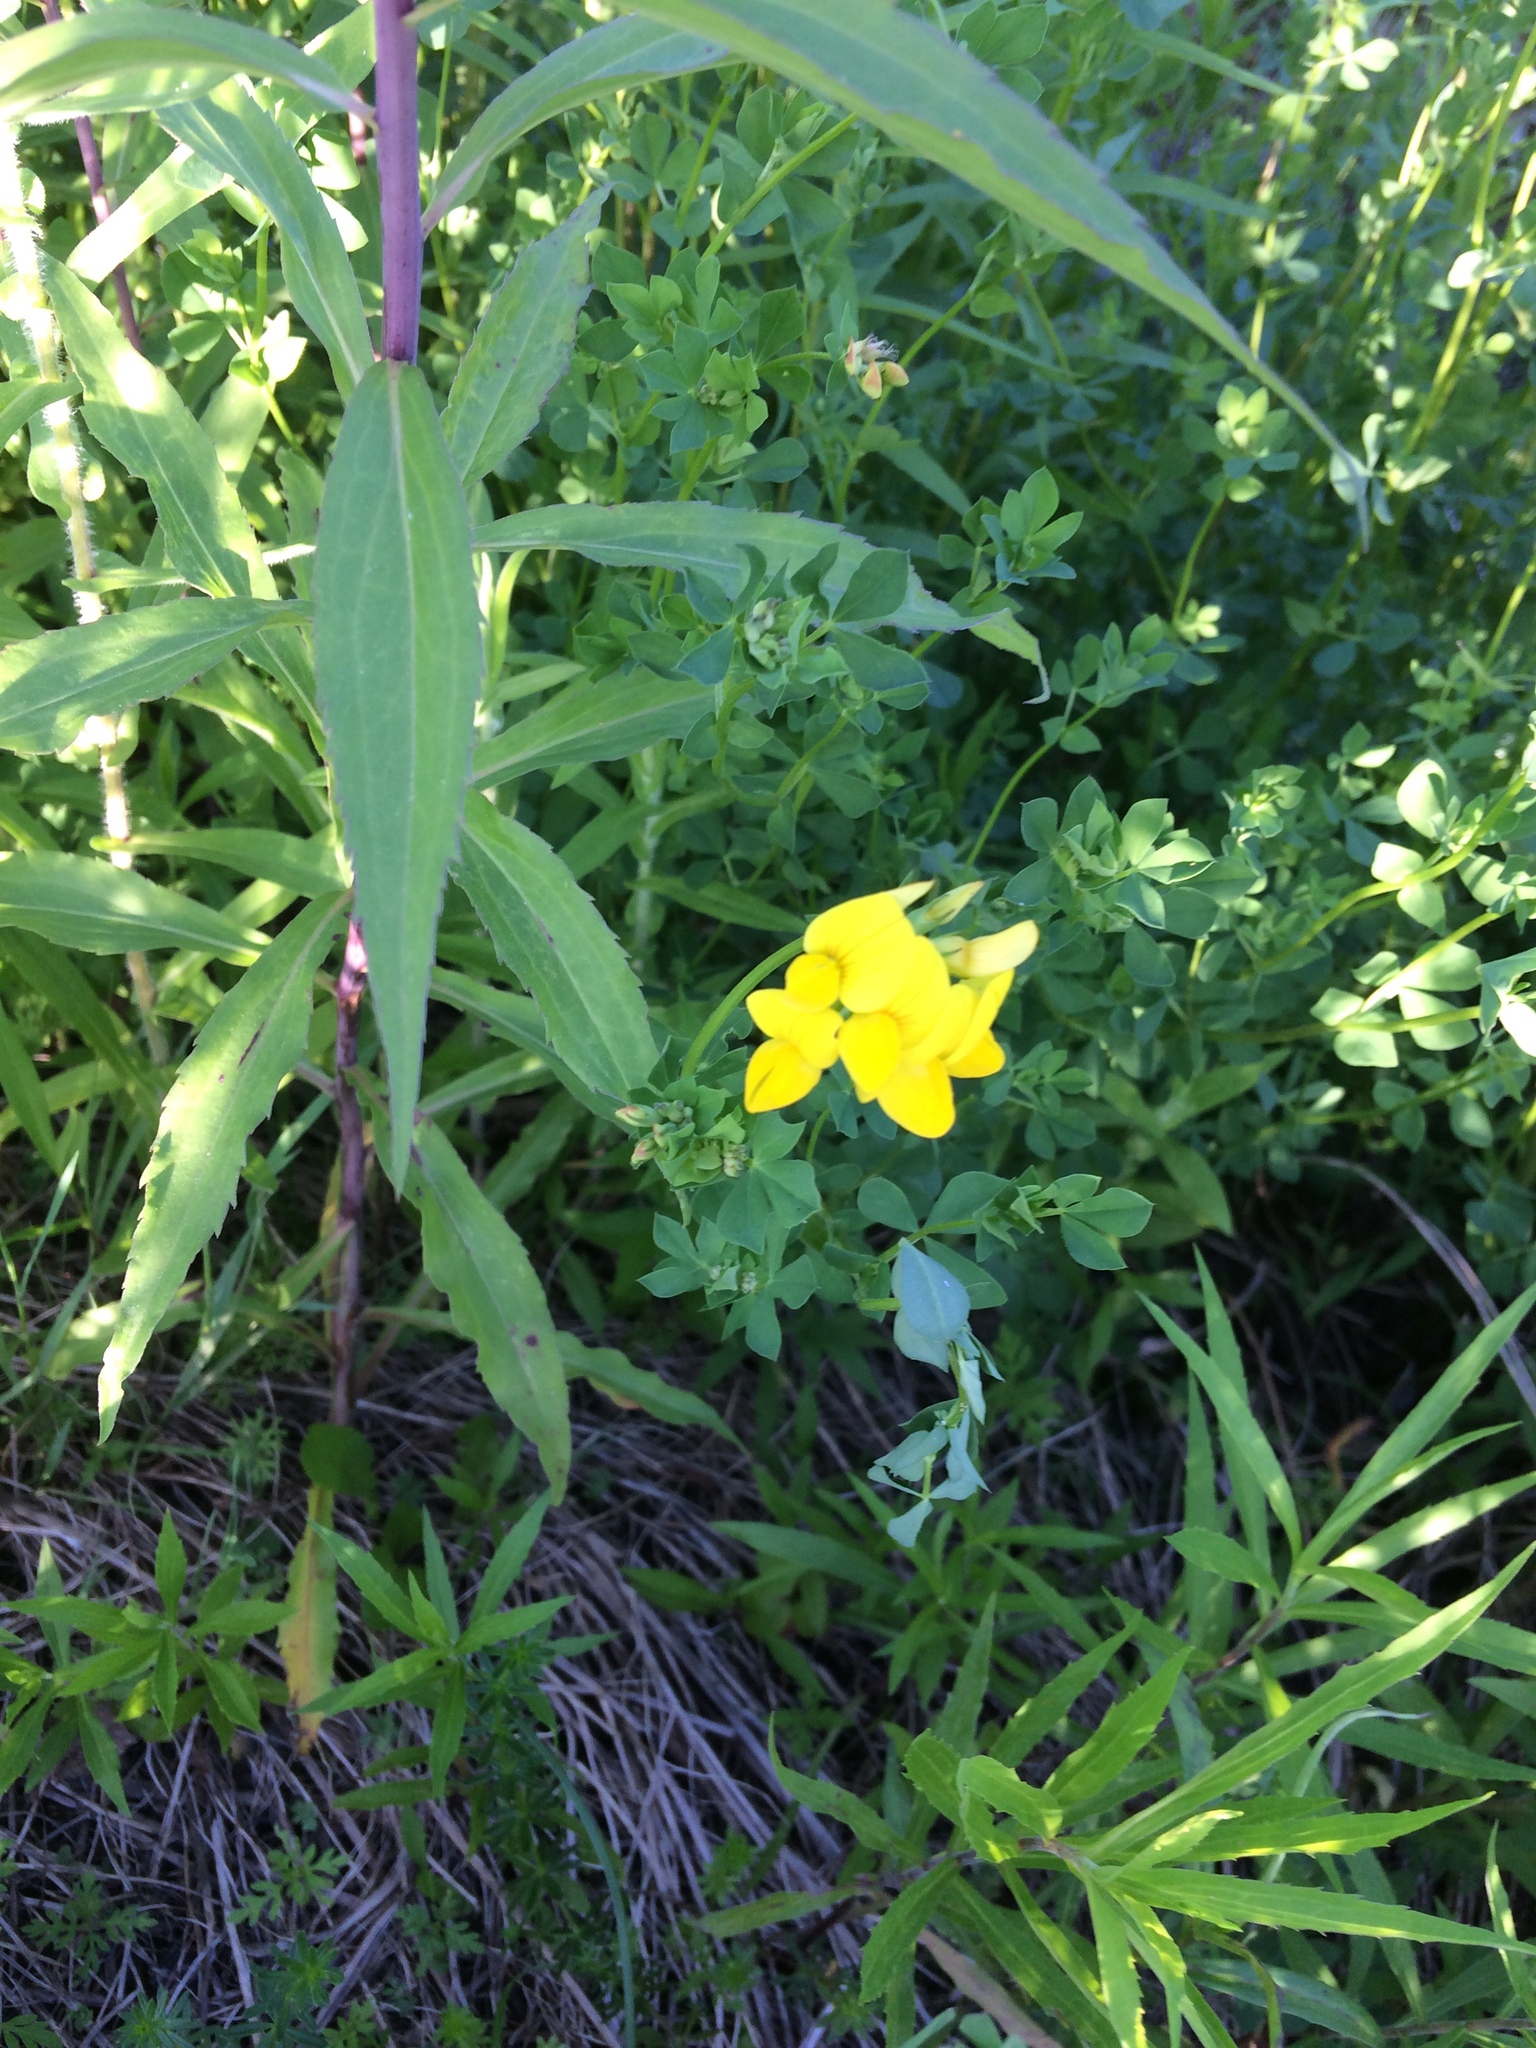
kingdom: Plantae
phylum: Tracheophyta
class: Magnoliopsida
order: Fabales
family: Fabaceae
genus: Lotus
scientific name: Lotus corniculatus
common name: Common bird's-foot-trefoil
